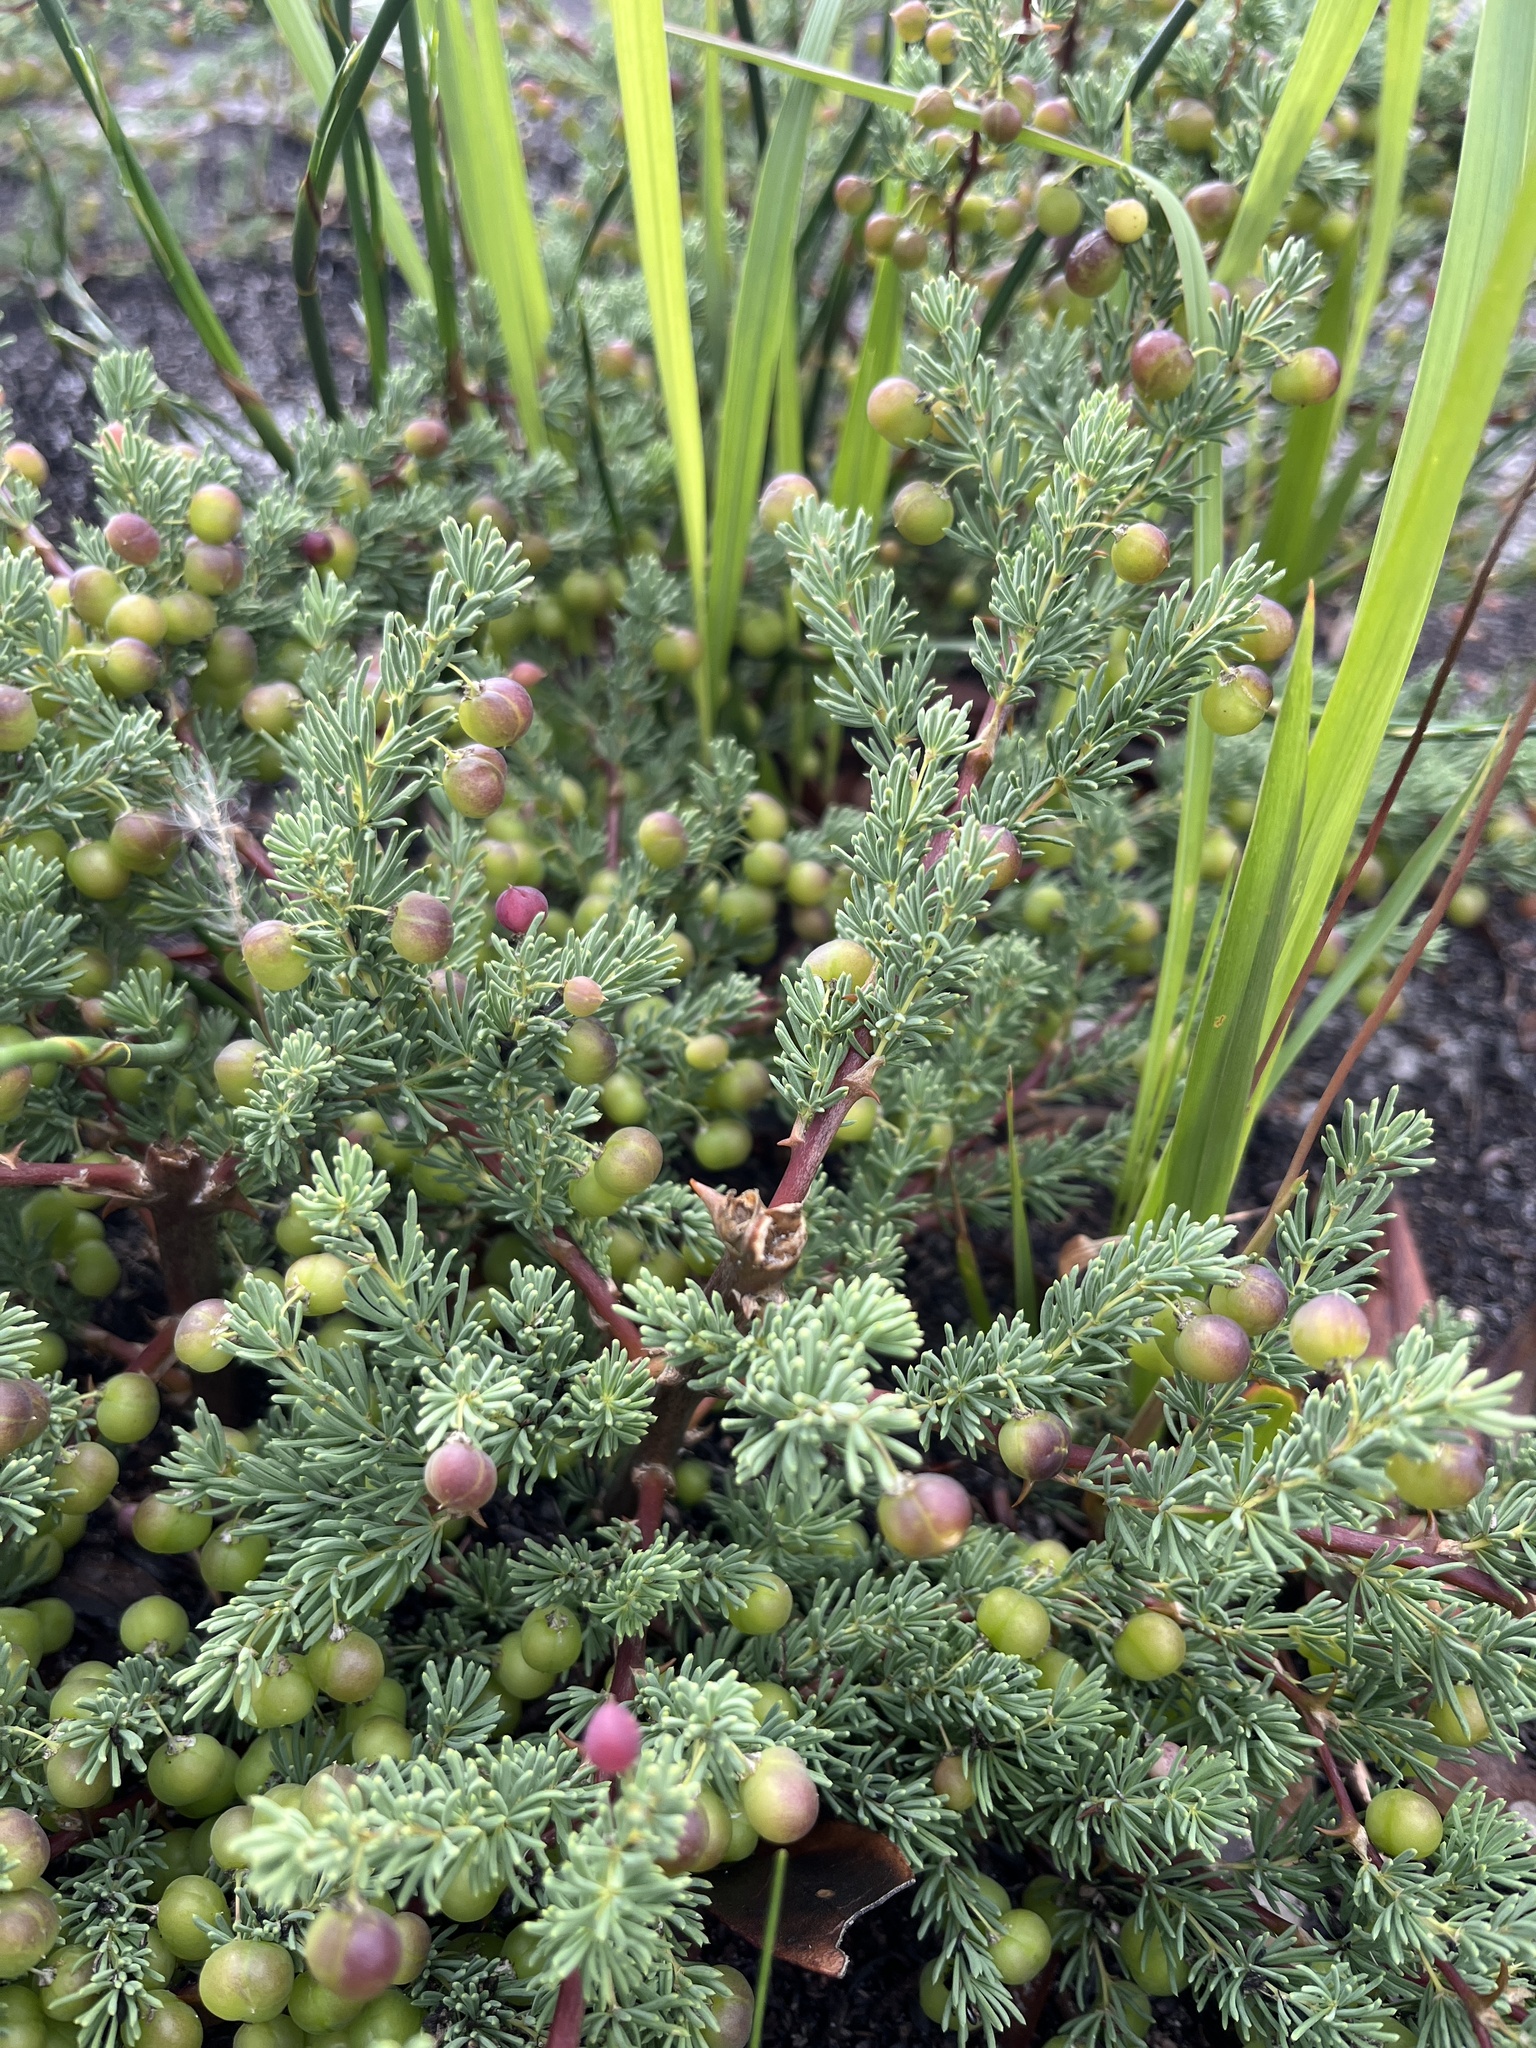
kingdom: Plantae
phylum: Tracheophyta
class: Liliopsida
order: Asparagales
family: Asparagaceae
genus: Asparagus
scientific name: Asparagus rubicundus
